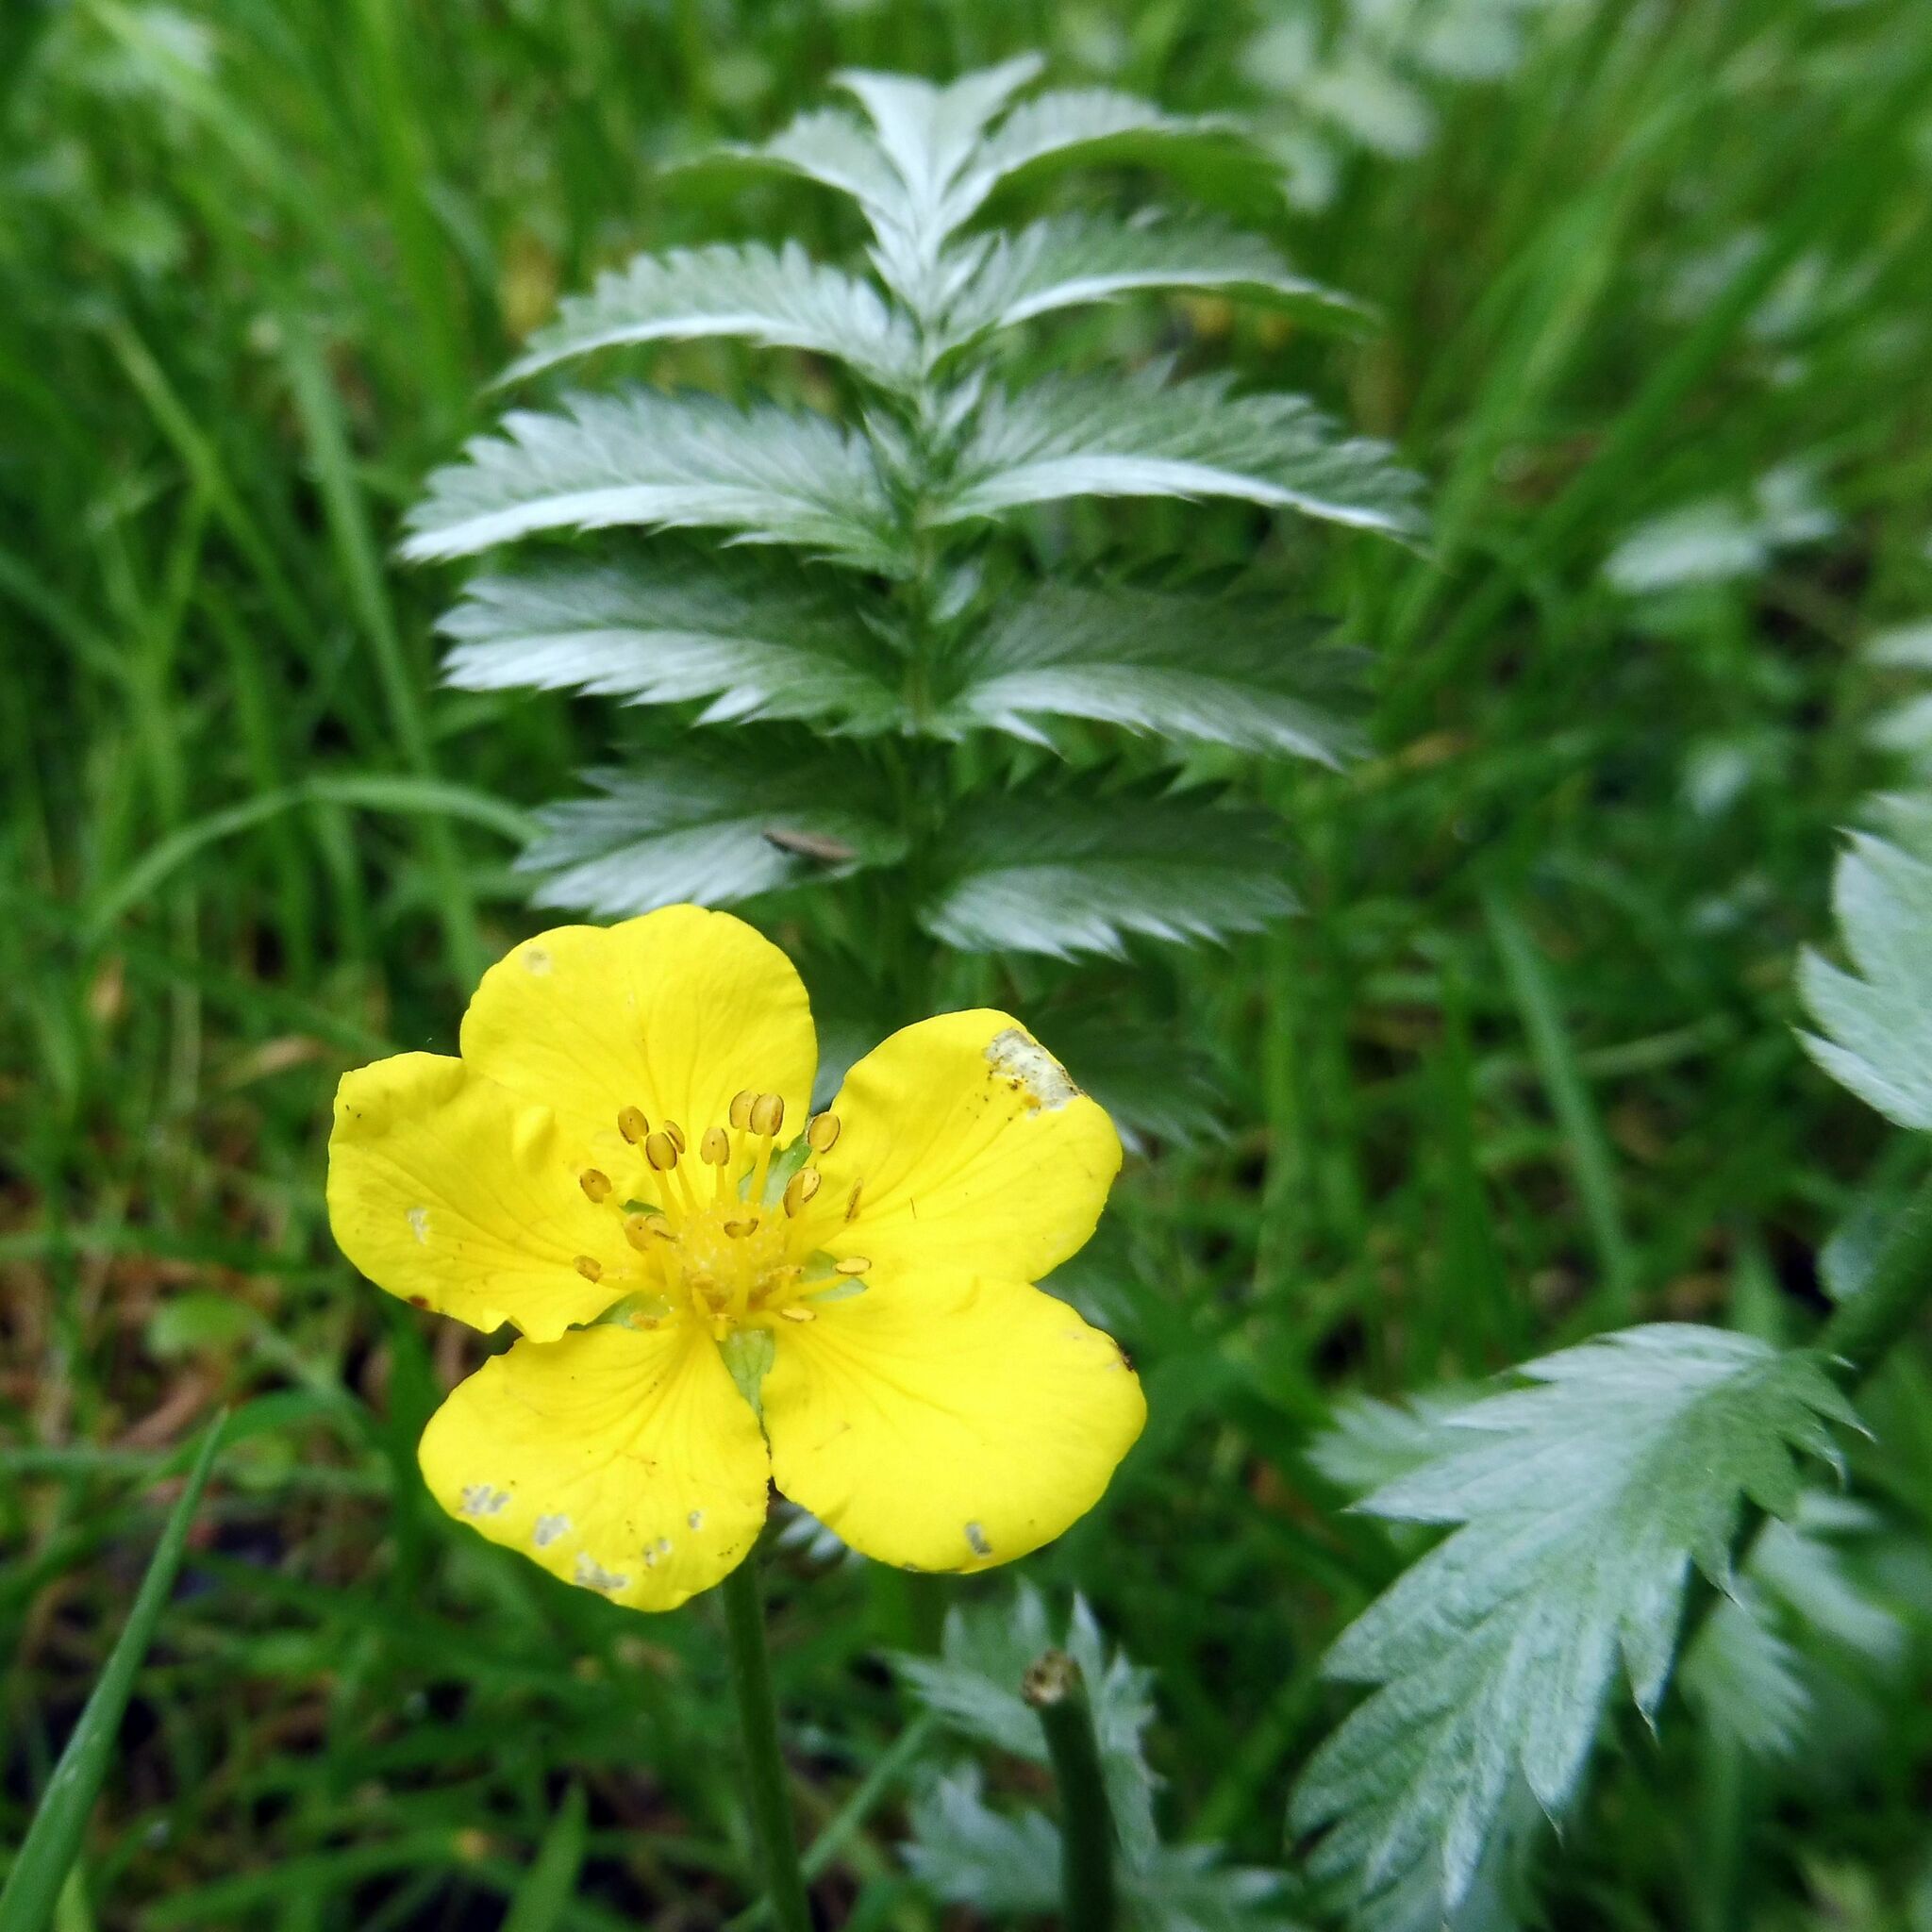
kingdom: Plantae
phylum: Tracheophyta
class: Magnoliopsida
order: Rosales
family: Rosaceae
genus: Argentina
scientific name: Argentina anserina
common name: Common silverweed
